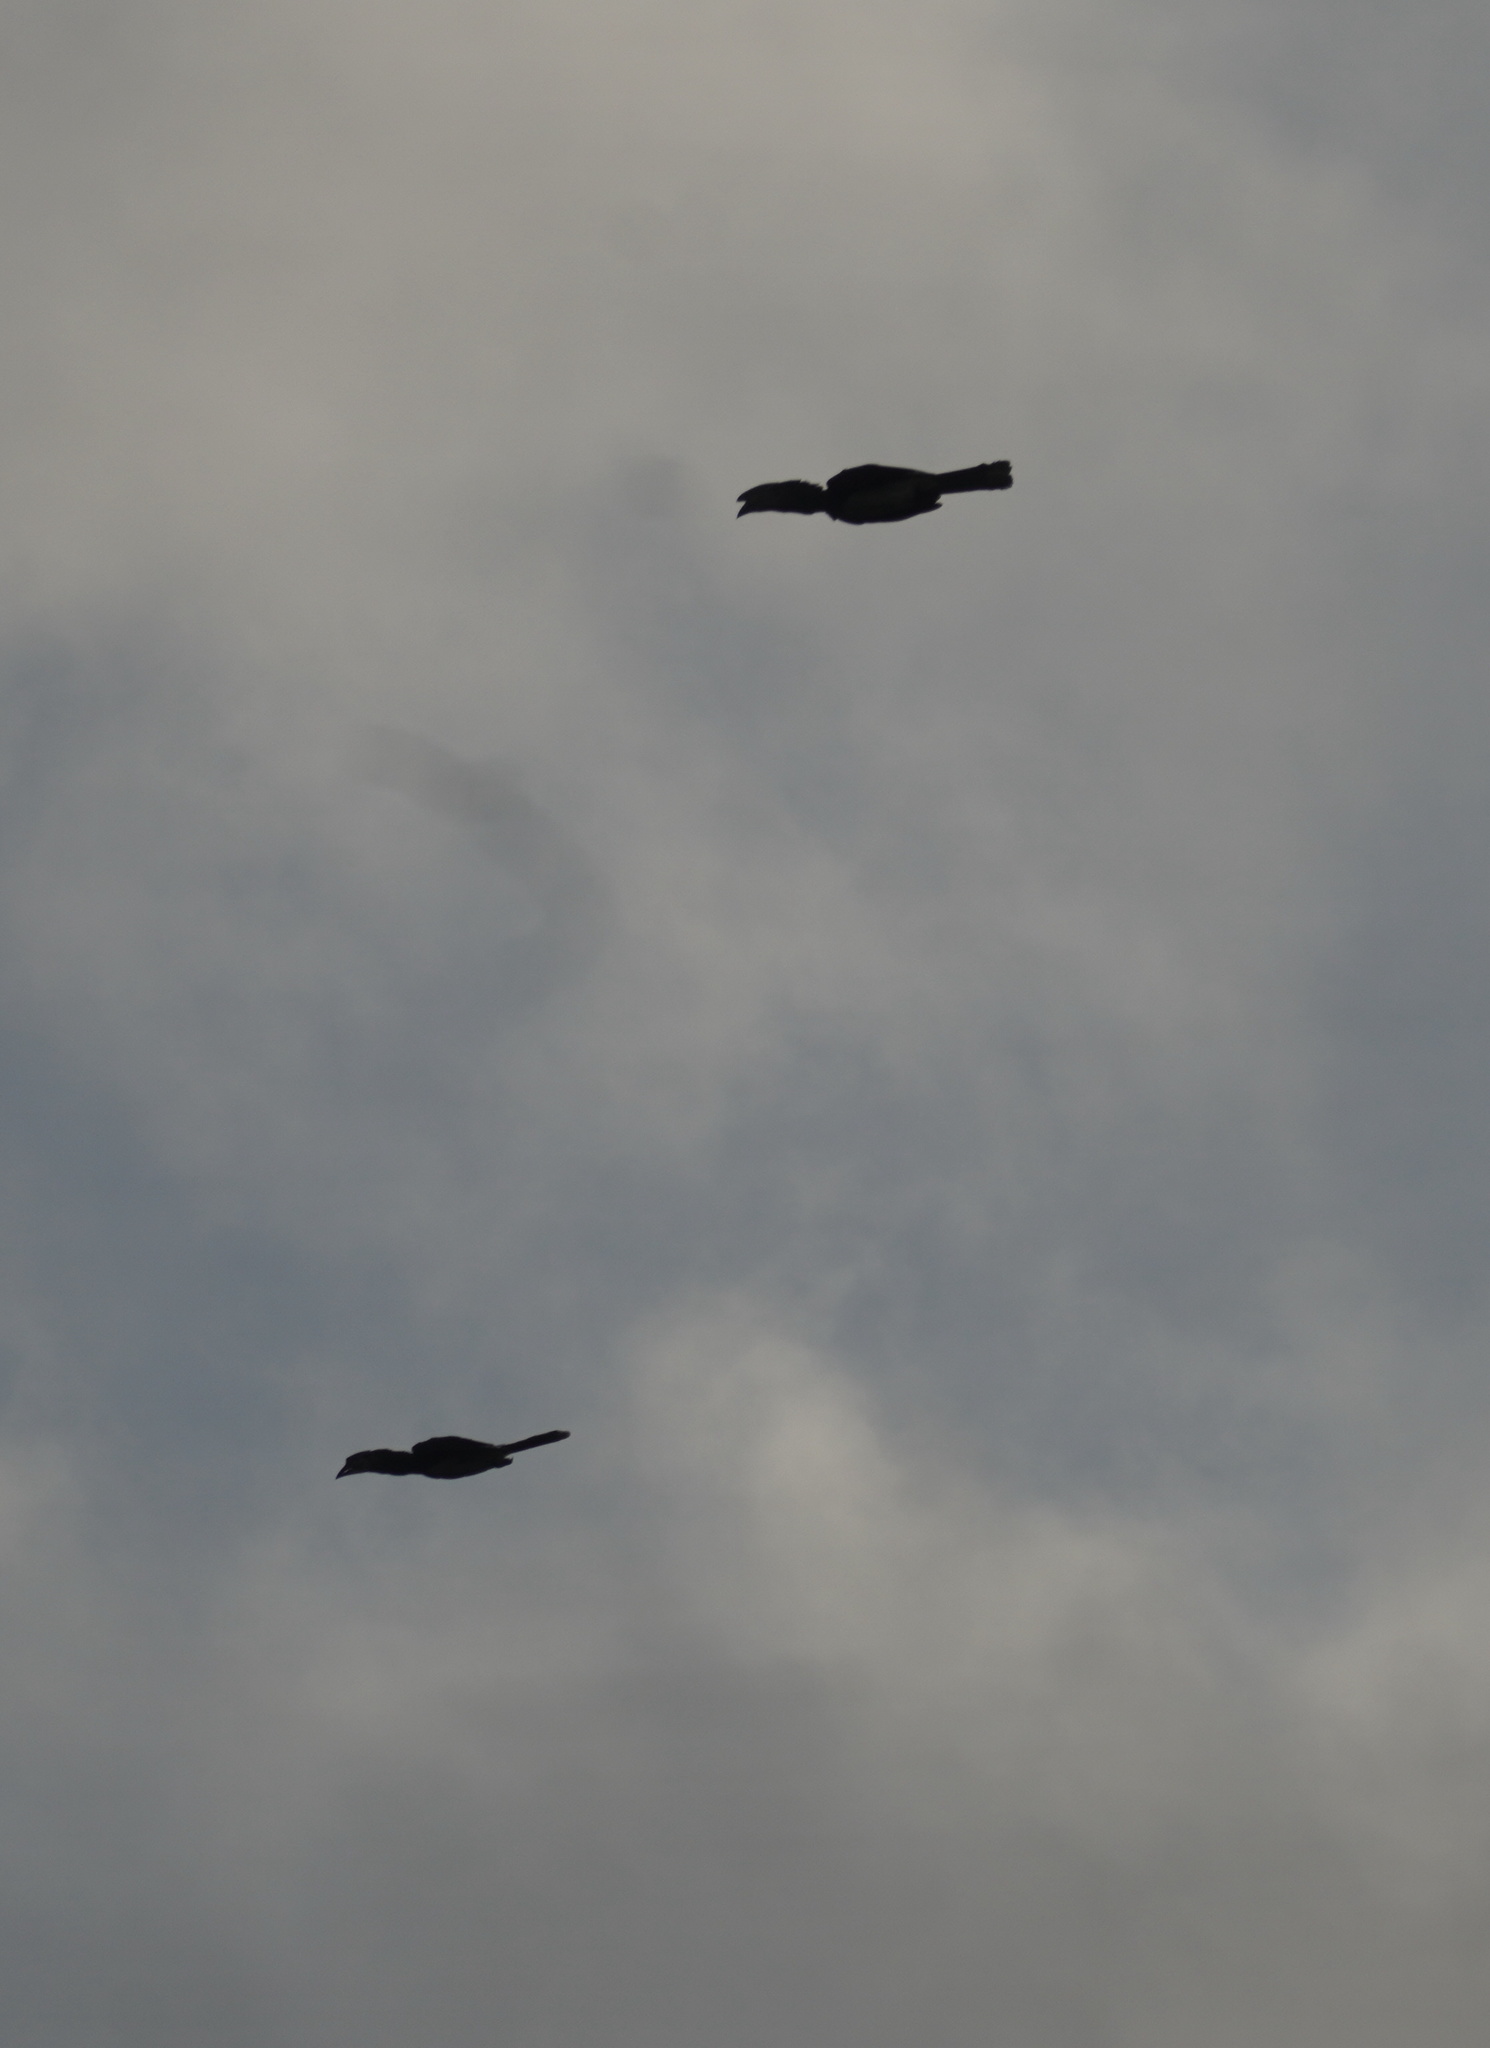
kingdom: Animalia
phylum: Chordata
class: Aves
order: Bucerotiformes
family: Bucerotidae
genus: Bycanistes
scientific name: Bycanistes bucinator
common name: Trumpeter hornbill
